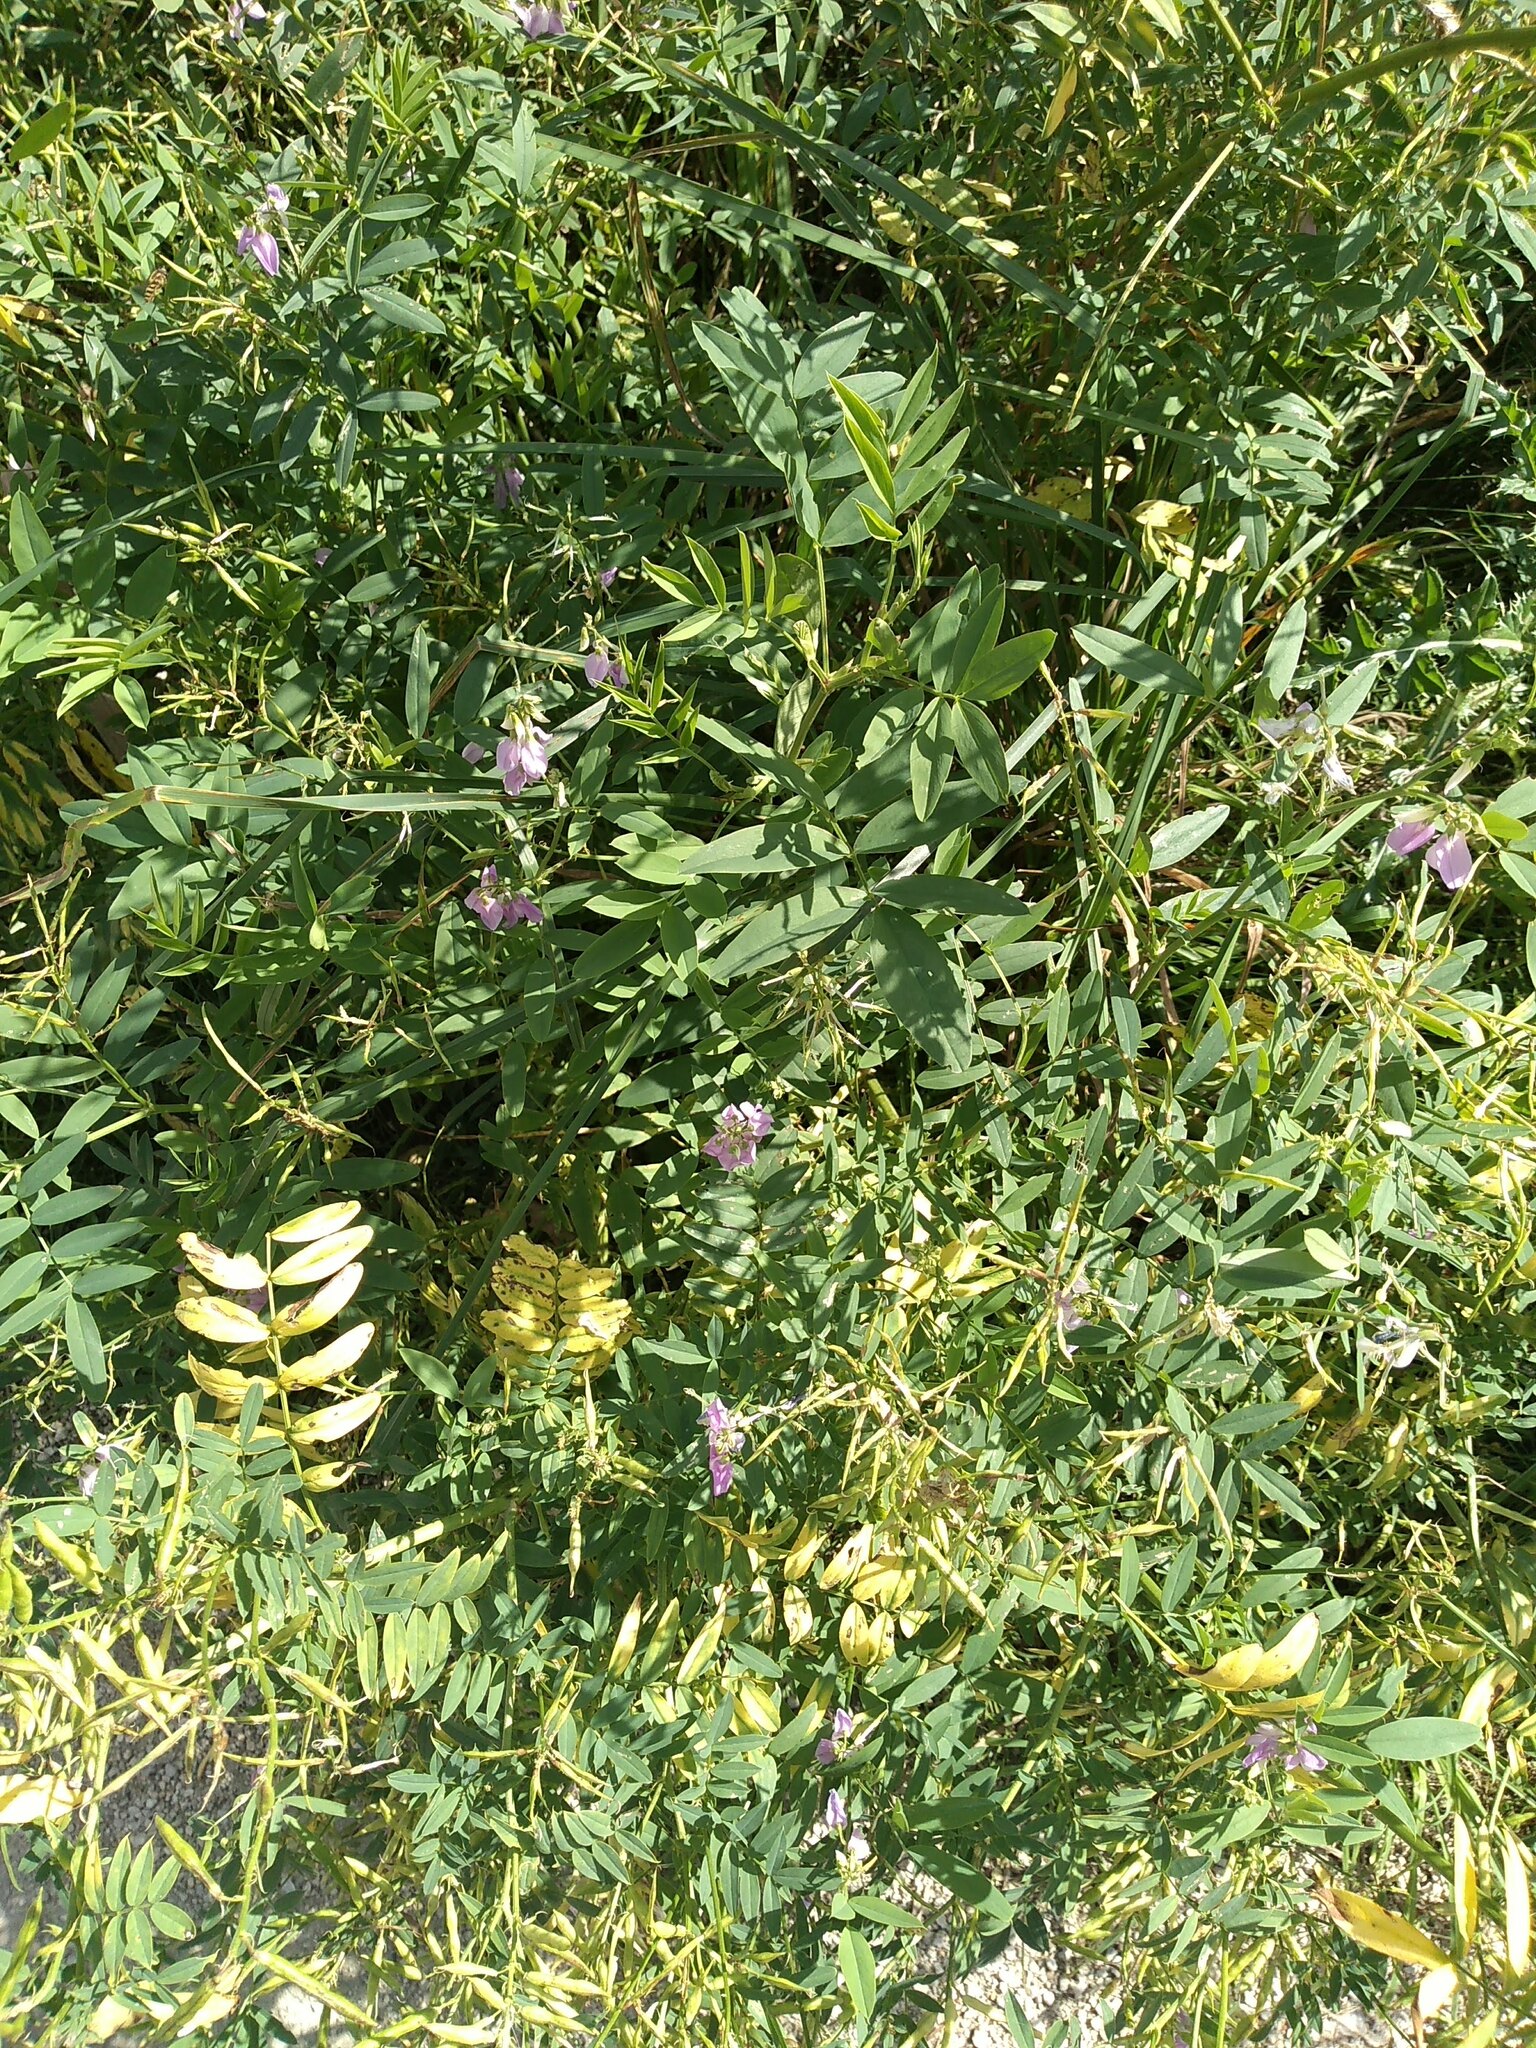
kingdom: Plantae
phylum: Tracheophyta
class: Magnoliopsida
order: Fabales
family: Fabaceae
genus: Galega
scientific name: Galega officinalis
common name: Goat's-rue
